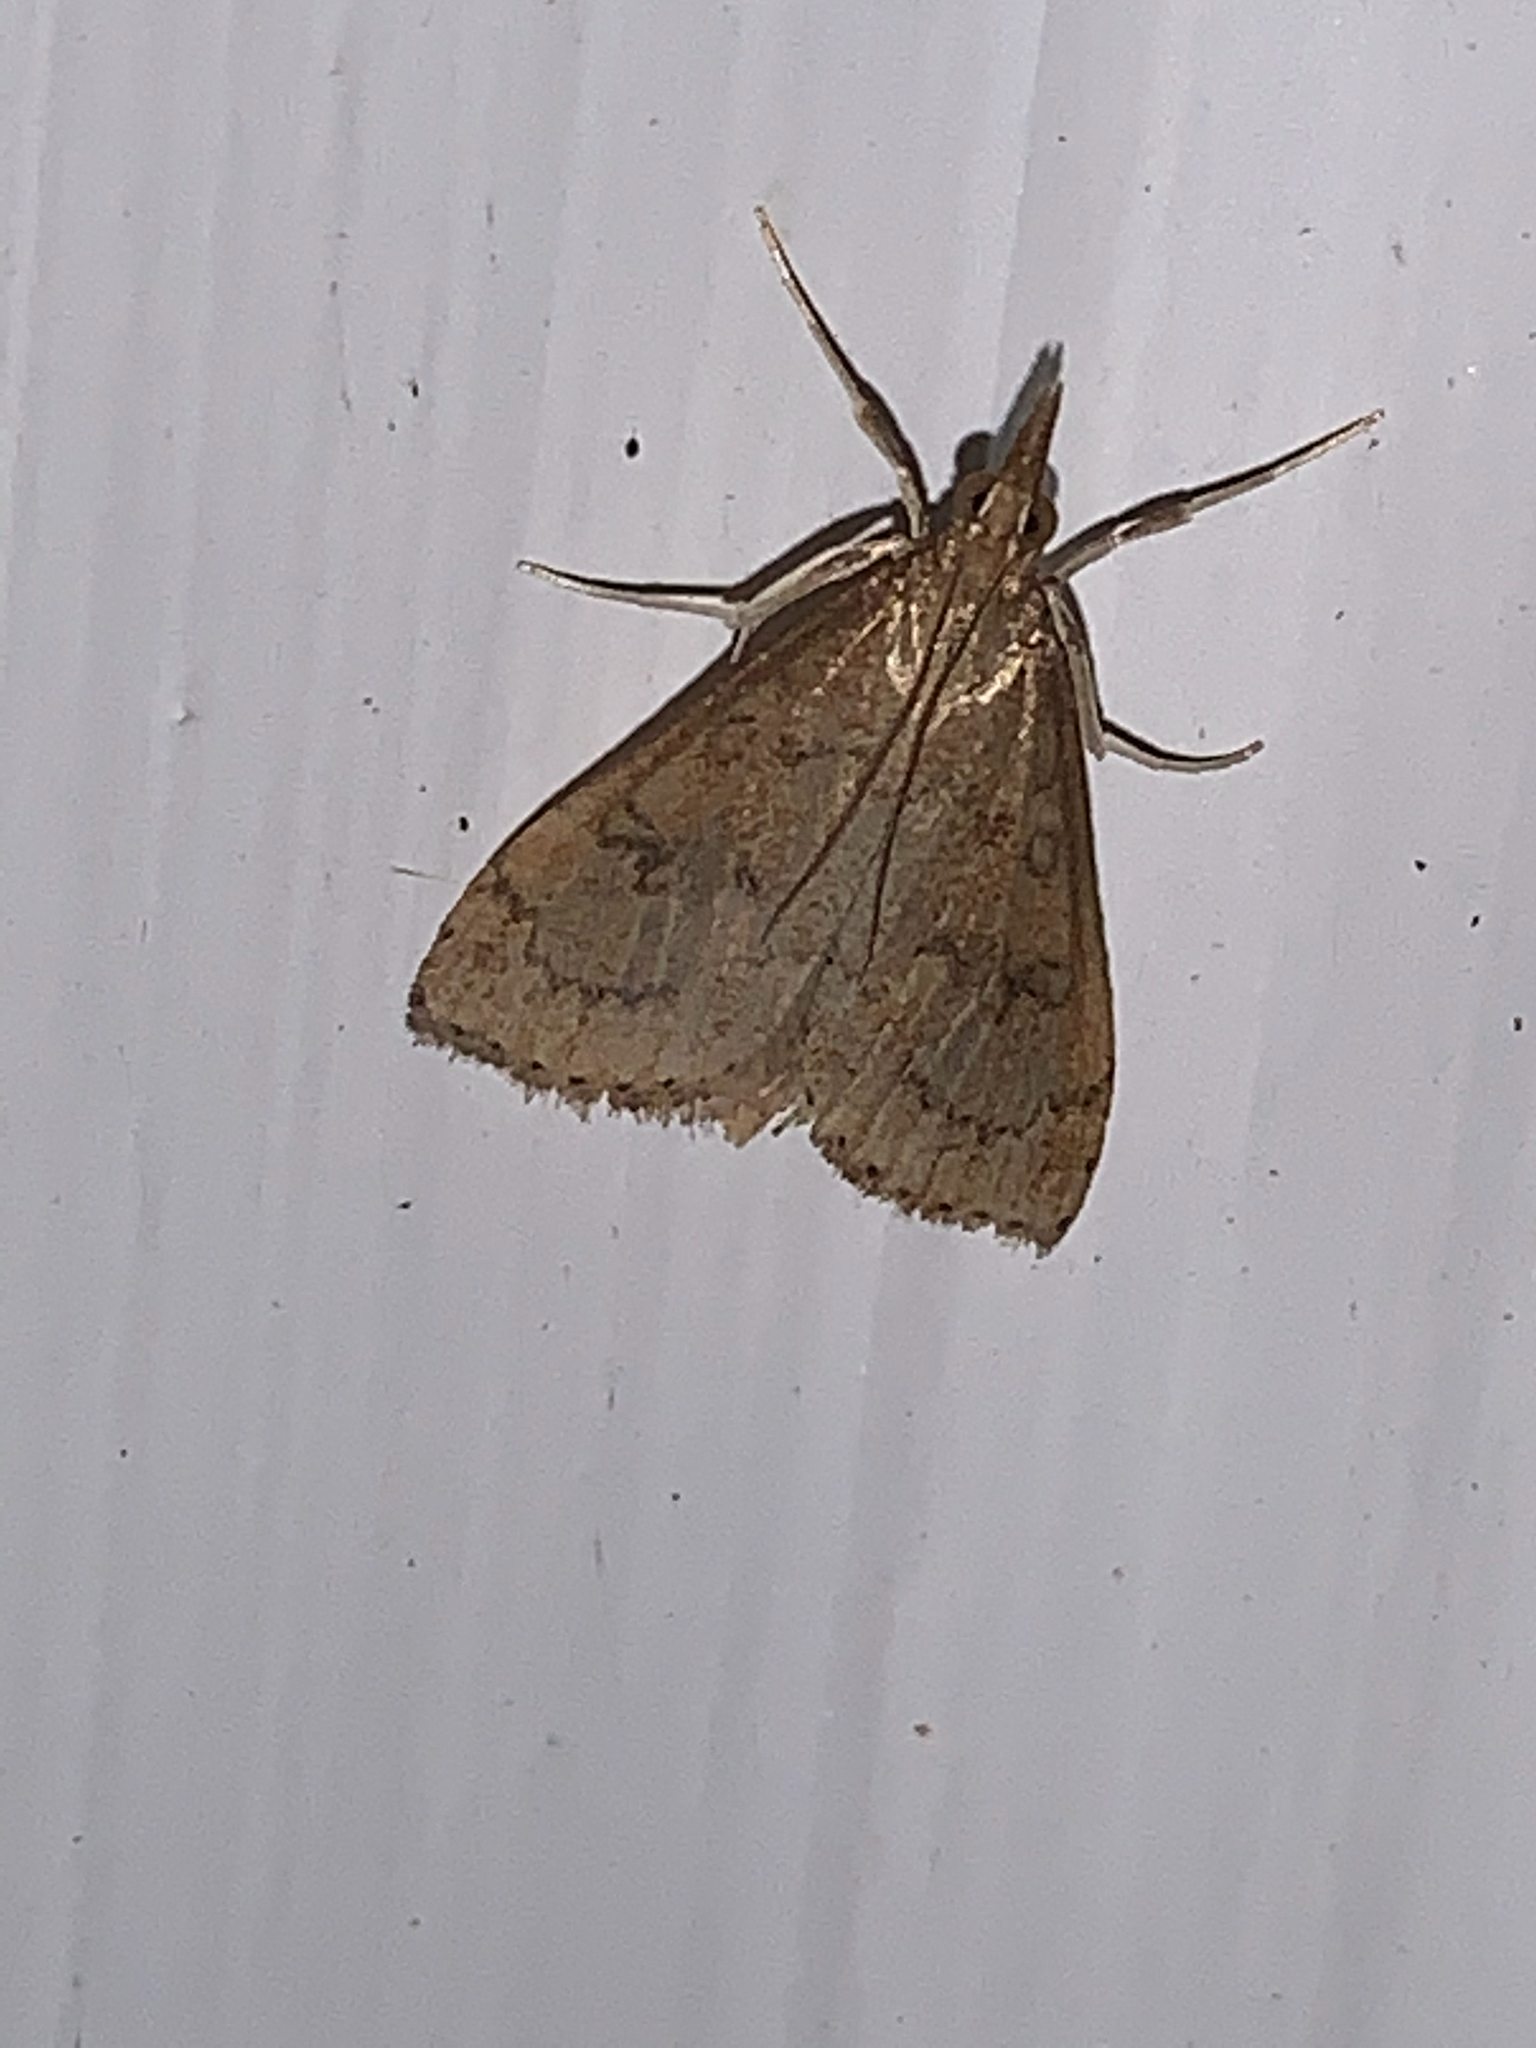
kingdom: Animalia
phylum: Arthropoda
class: Insecta
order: Lepidoptera
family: Crambidae
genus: Udea
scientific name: Udea rubigalis
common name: Celery leaftier moth
